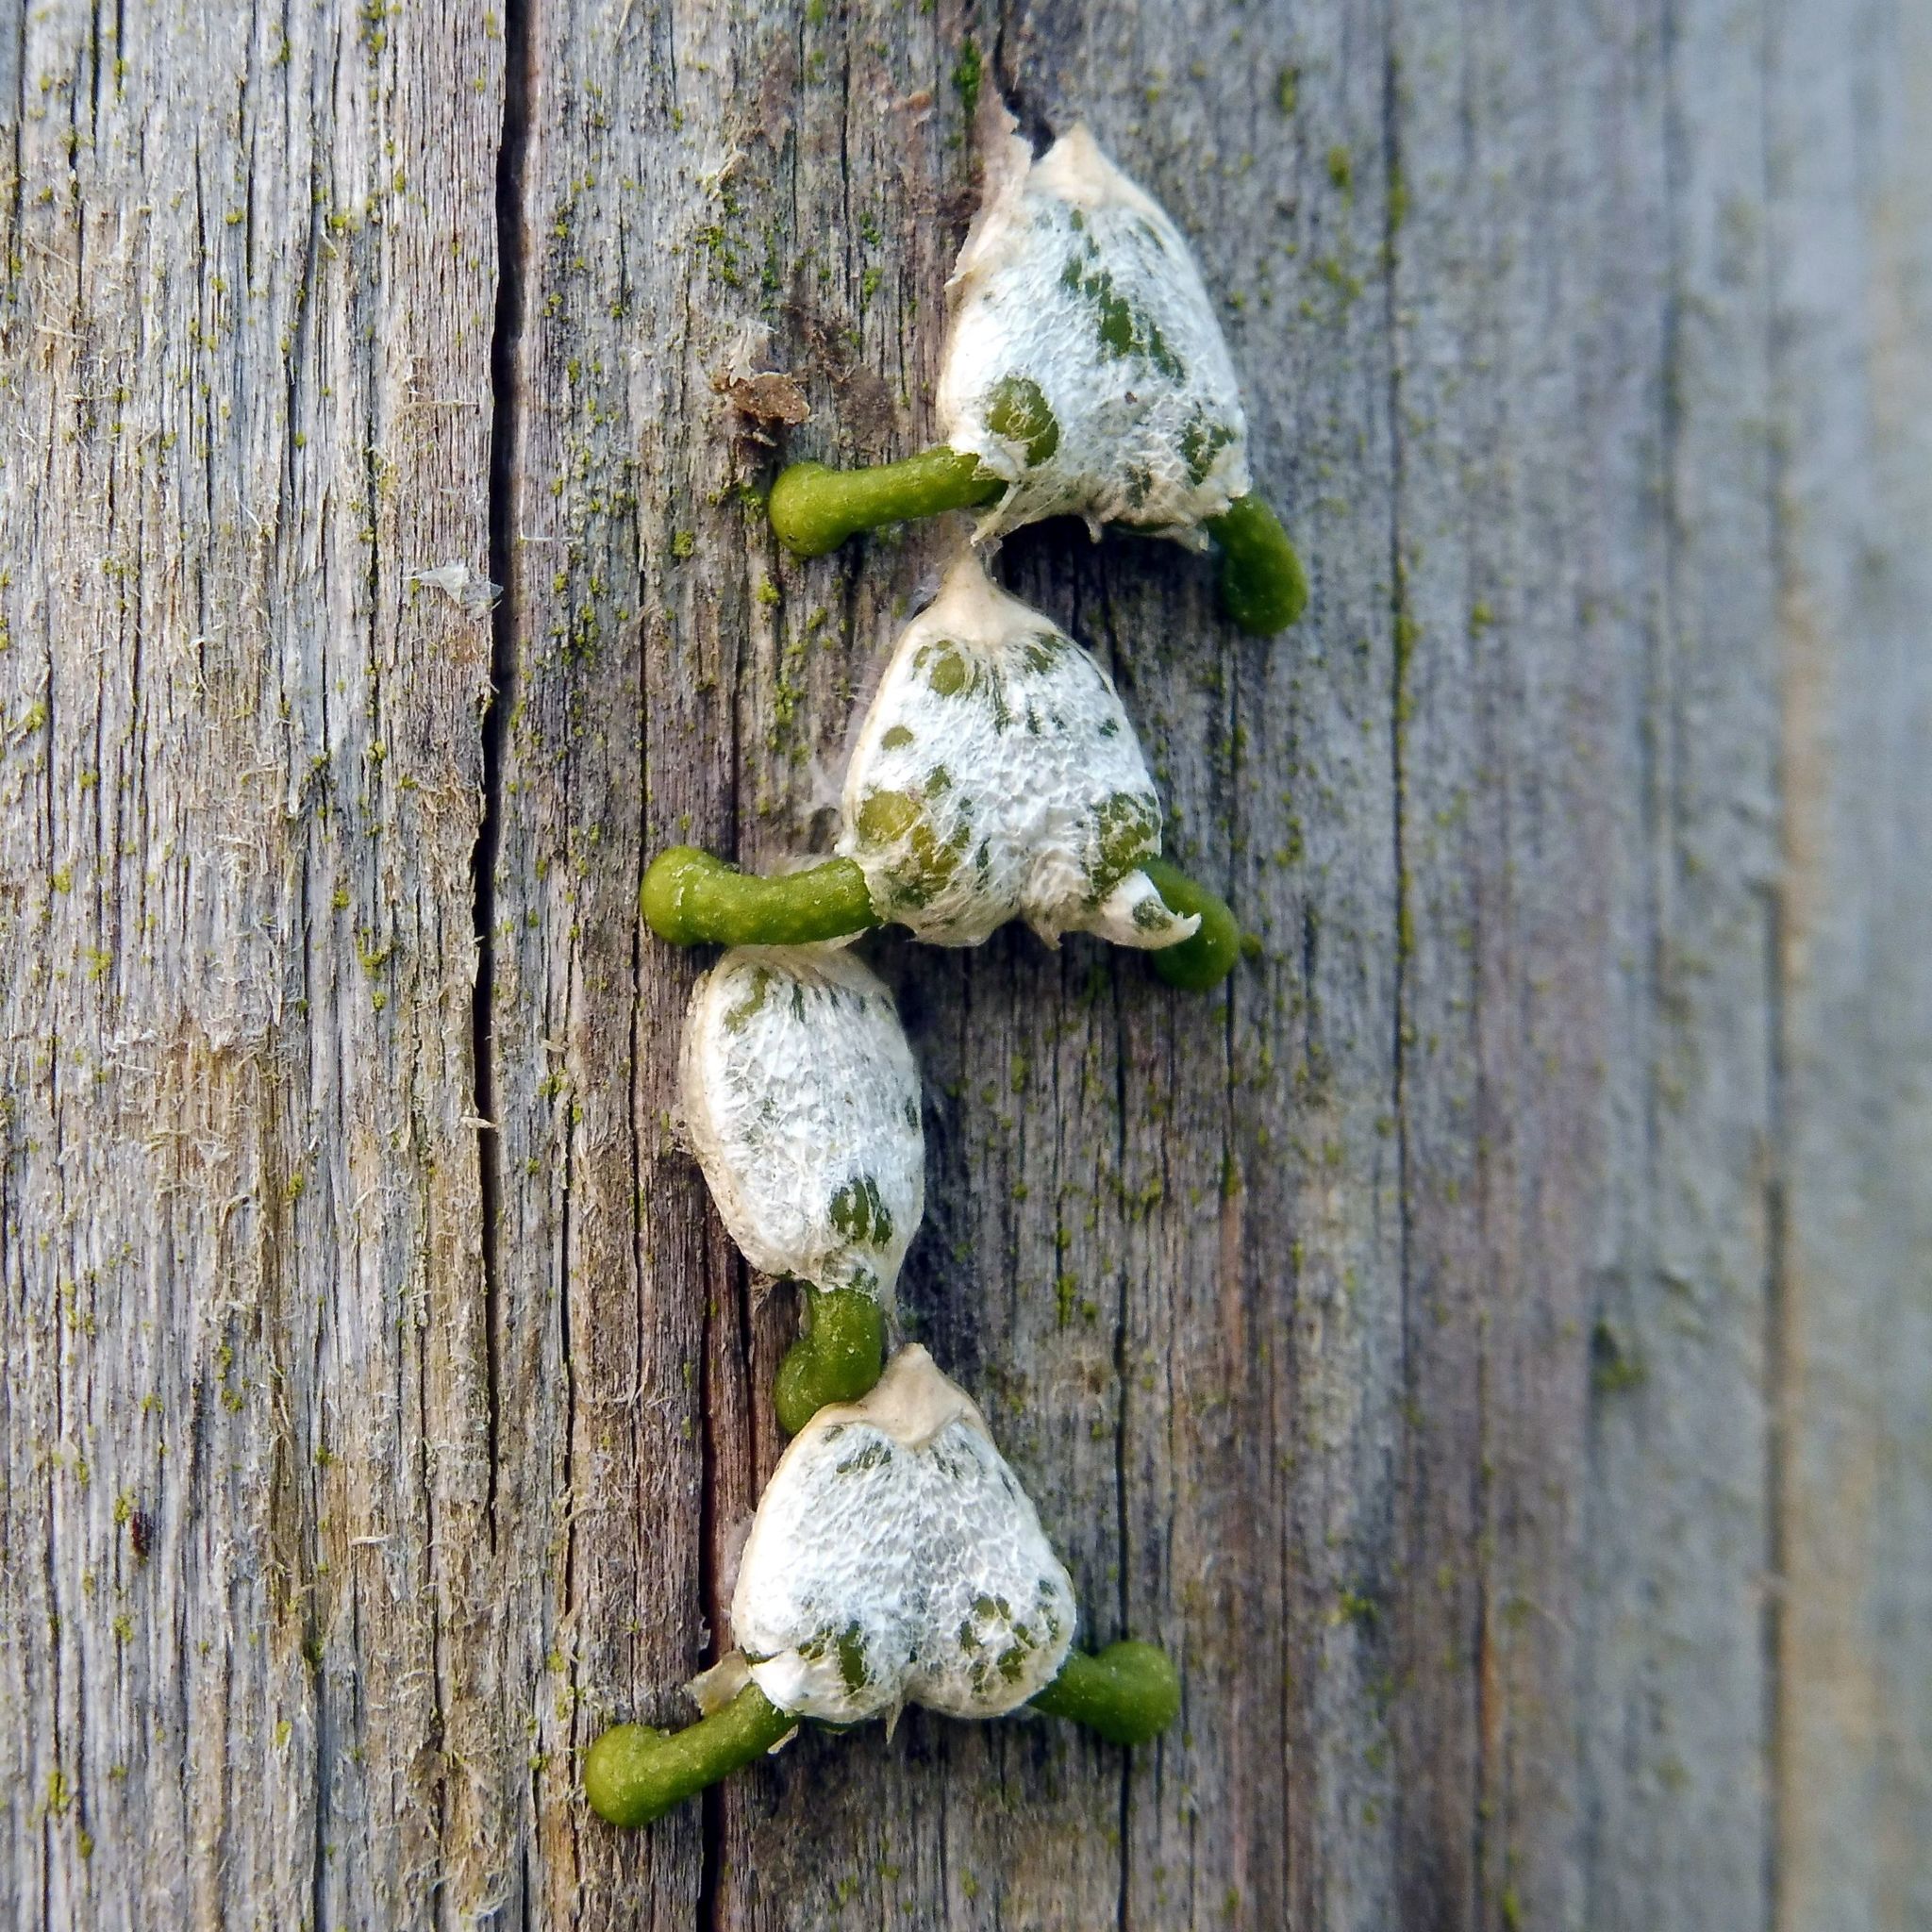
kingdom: Plantae
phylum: Tracheophyta
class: Magnoliopsida
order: Santalales
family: Viscaceae
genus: Viscum
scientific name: Viscum album
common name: Mistletoe
